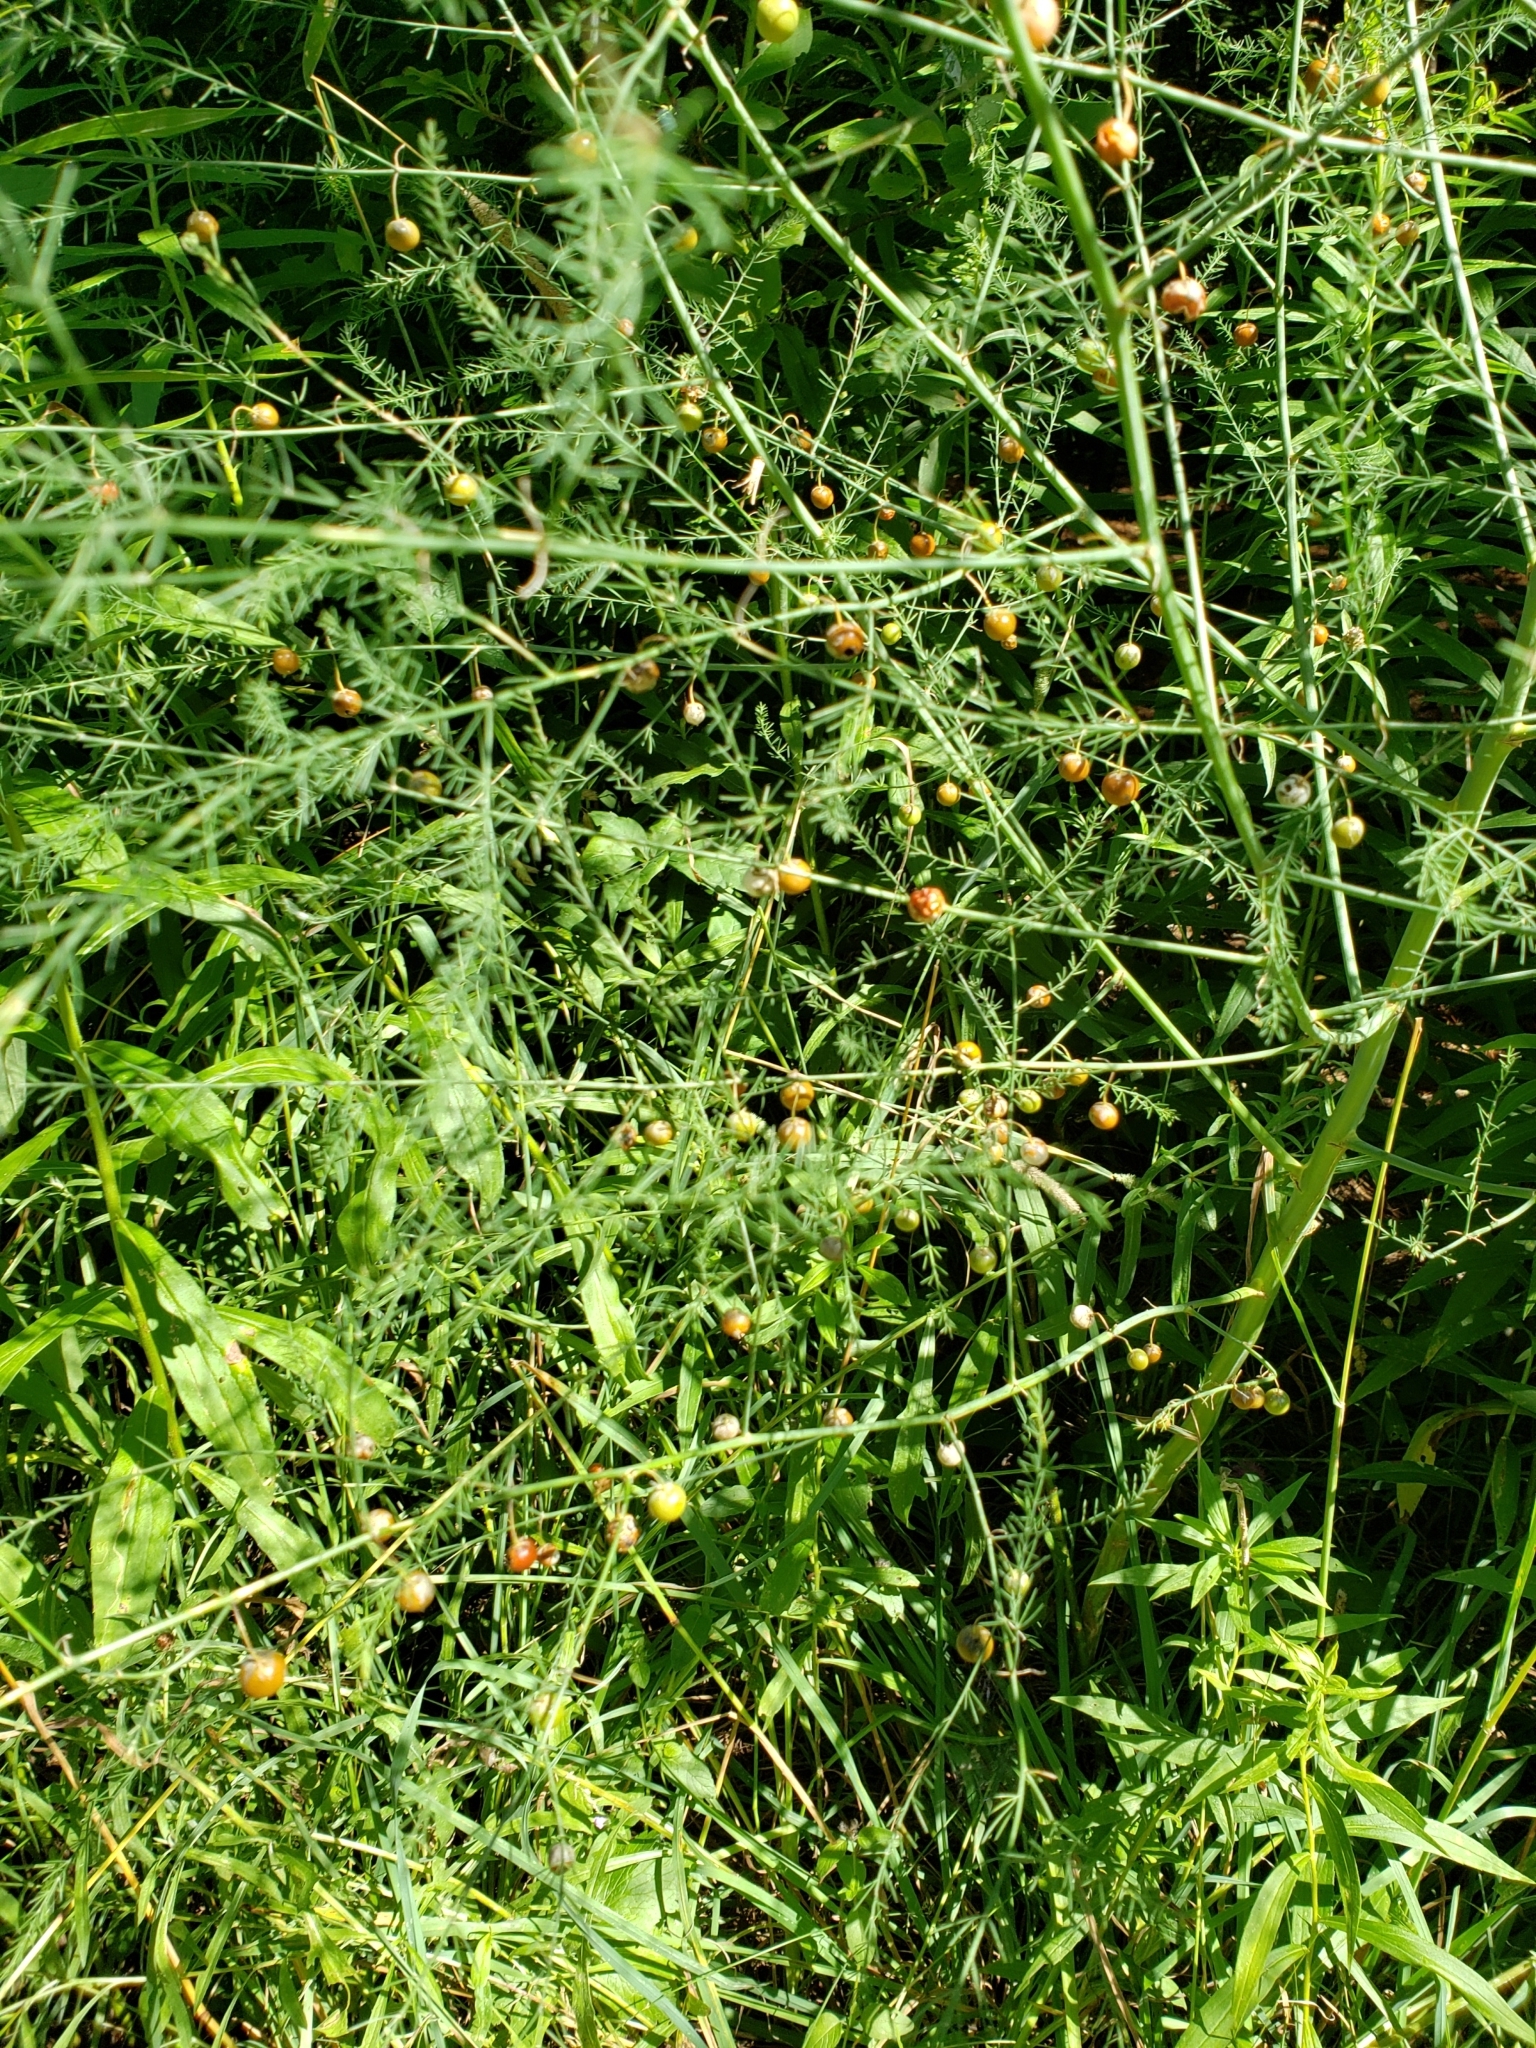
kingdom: Plantae
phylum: Tracheophyta
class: Liliopsida
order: Asparagales
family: Asparagaceae
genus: Asparagus
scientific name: Asparagus officinalis
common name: Garden asparagus
